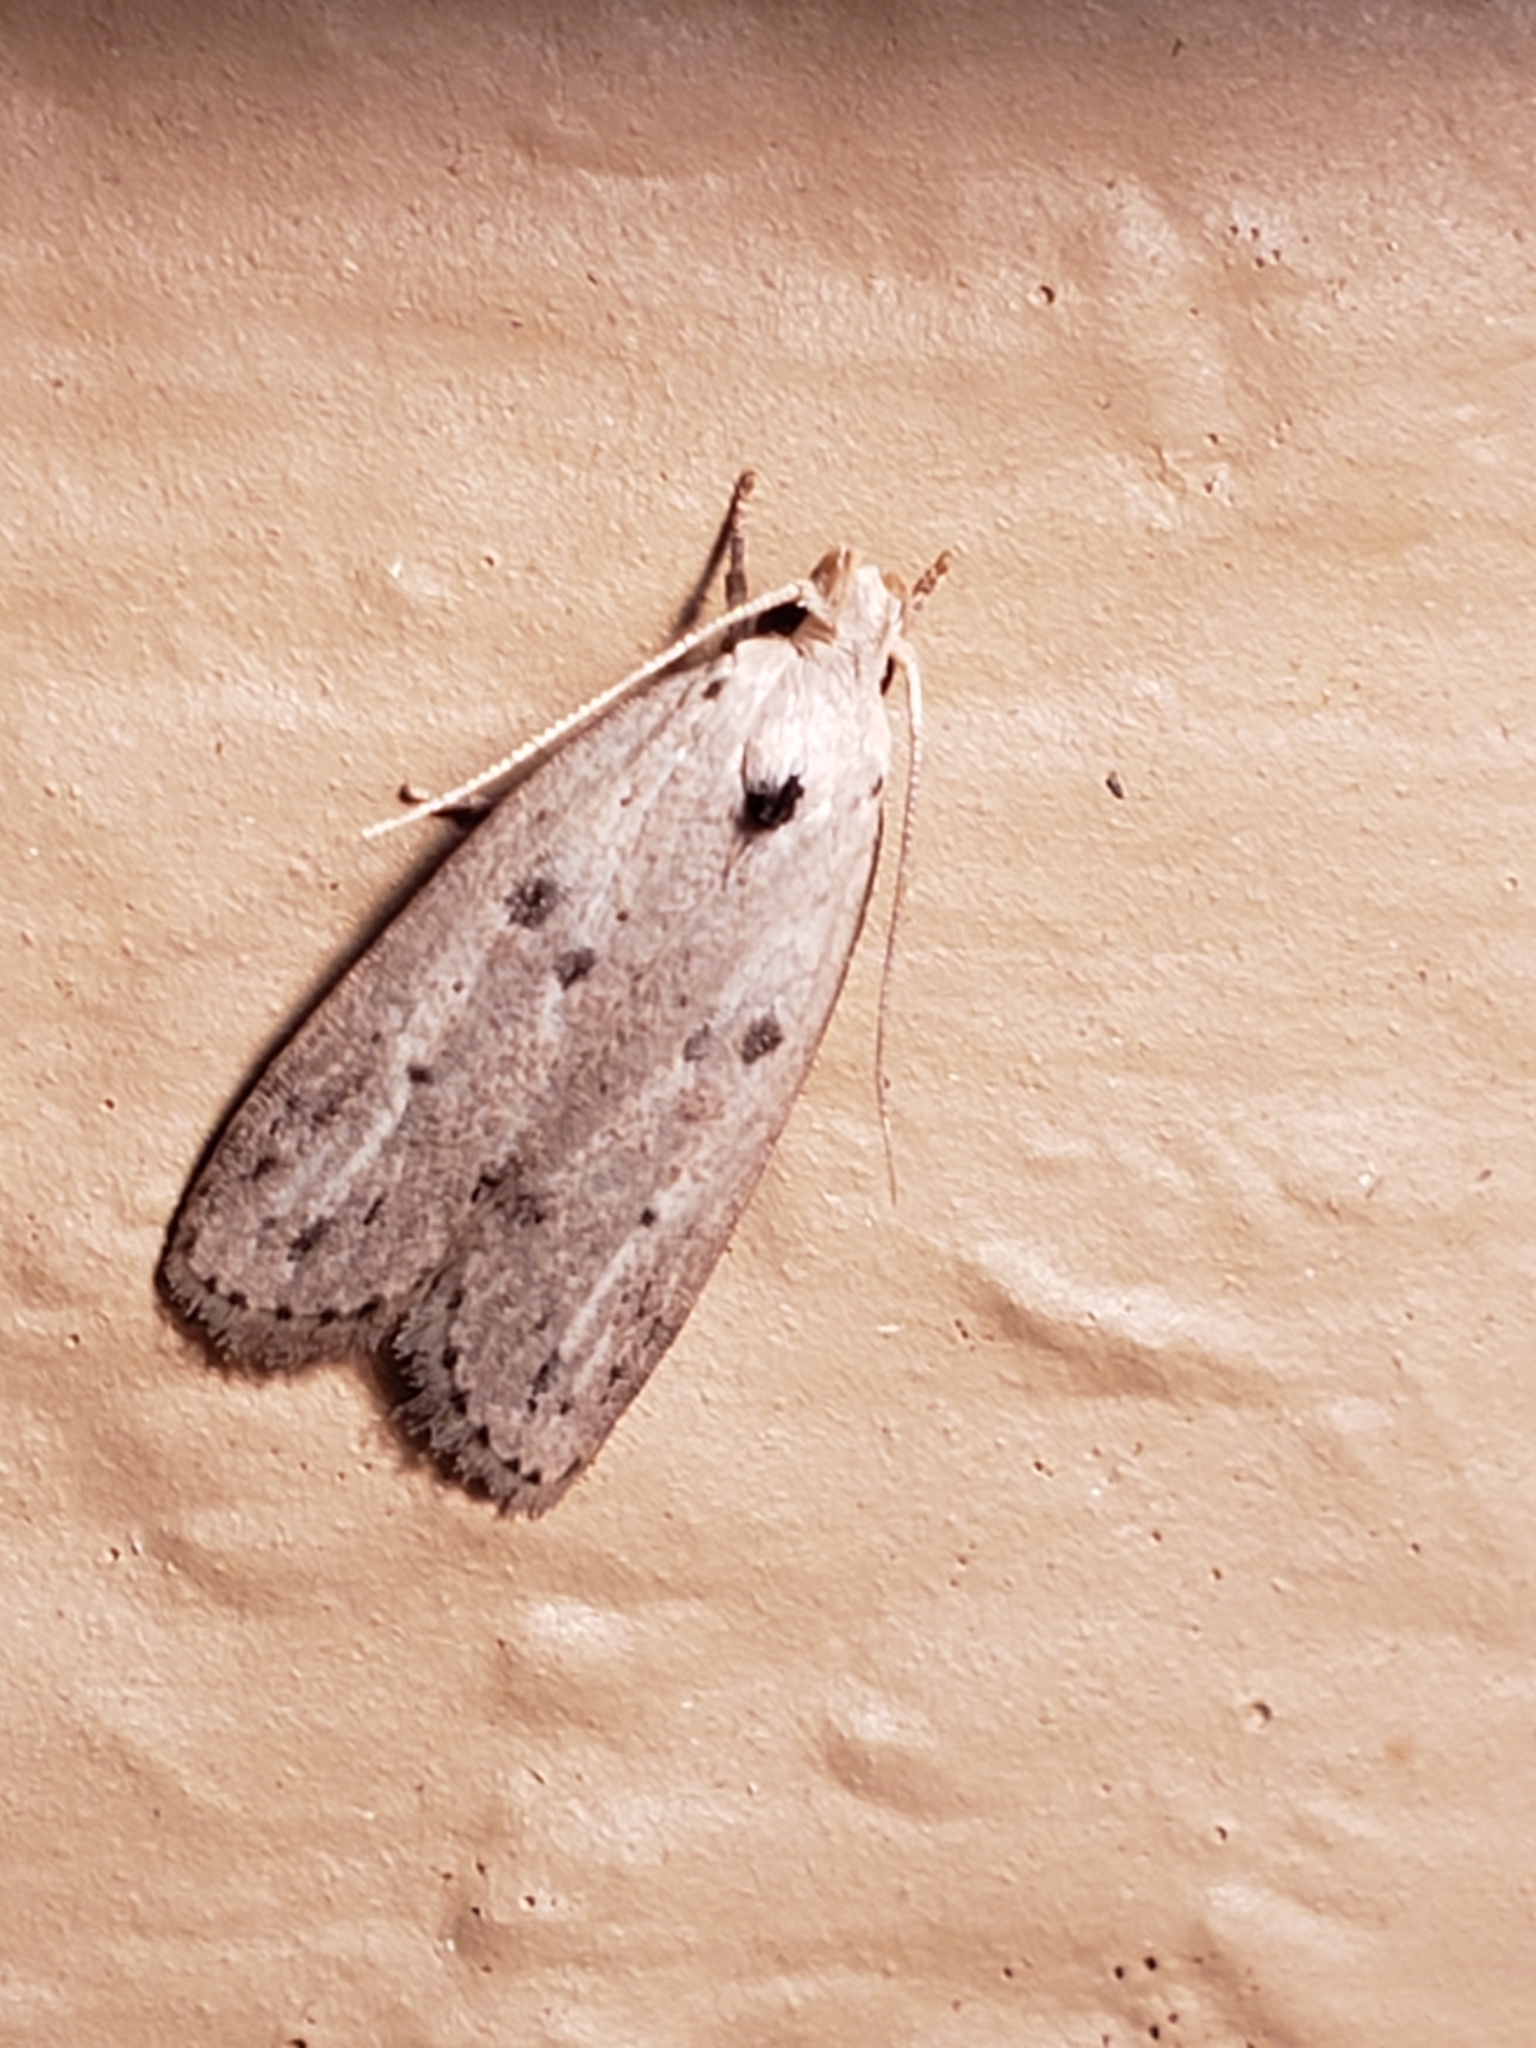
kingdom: Animalia
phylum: Arthropoda
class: Insecta
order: Lepidoptera
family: Peleopodidae
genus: Scythropiodes
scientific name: Scythropiodes issikii
